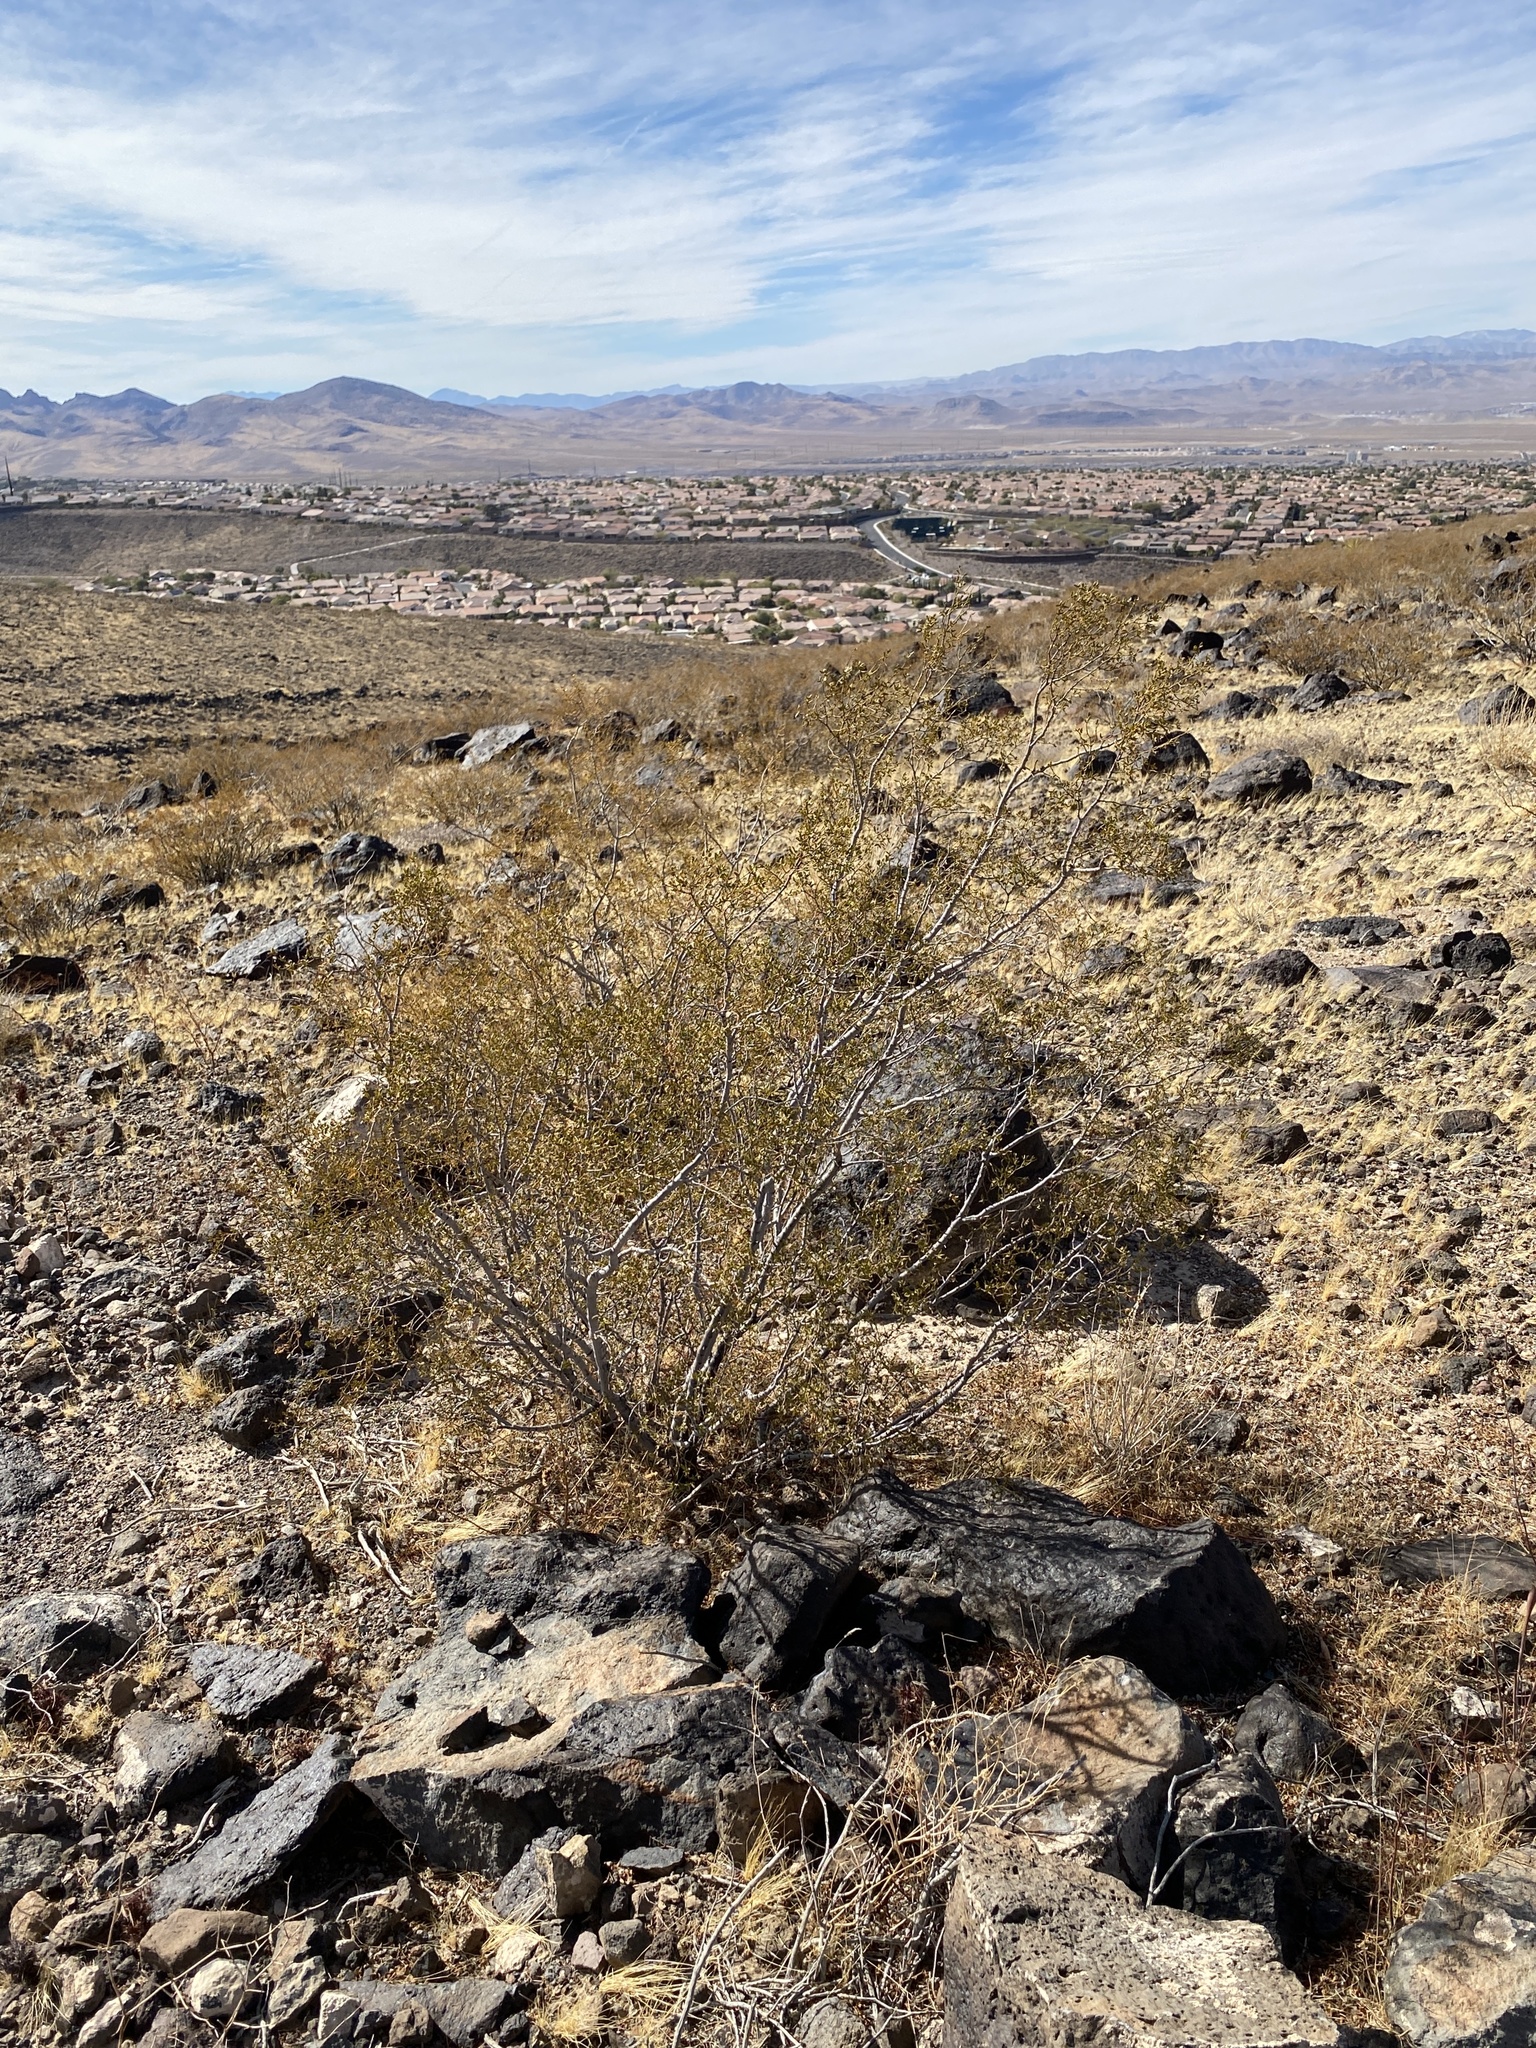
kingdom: Plantae
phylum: Tracheophyta
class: Magnoliopsida
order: Zygophyllales
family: Zygophyllaceae
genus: Larrea
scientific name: Larrea tridentata
